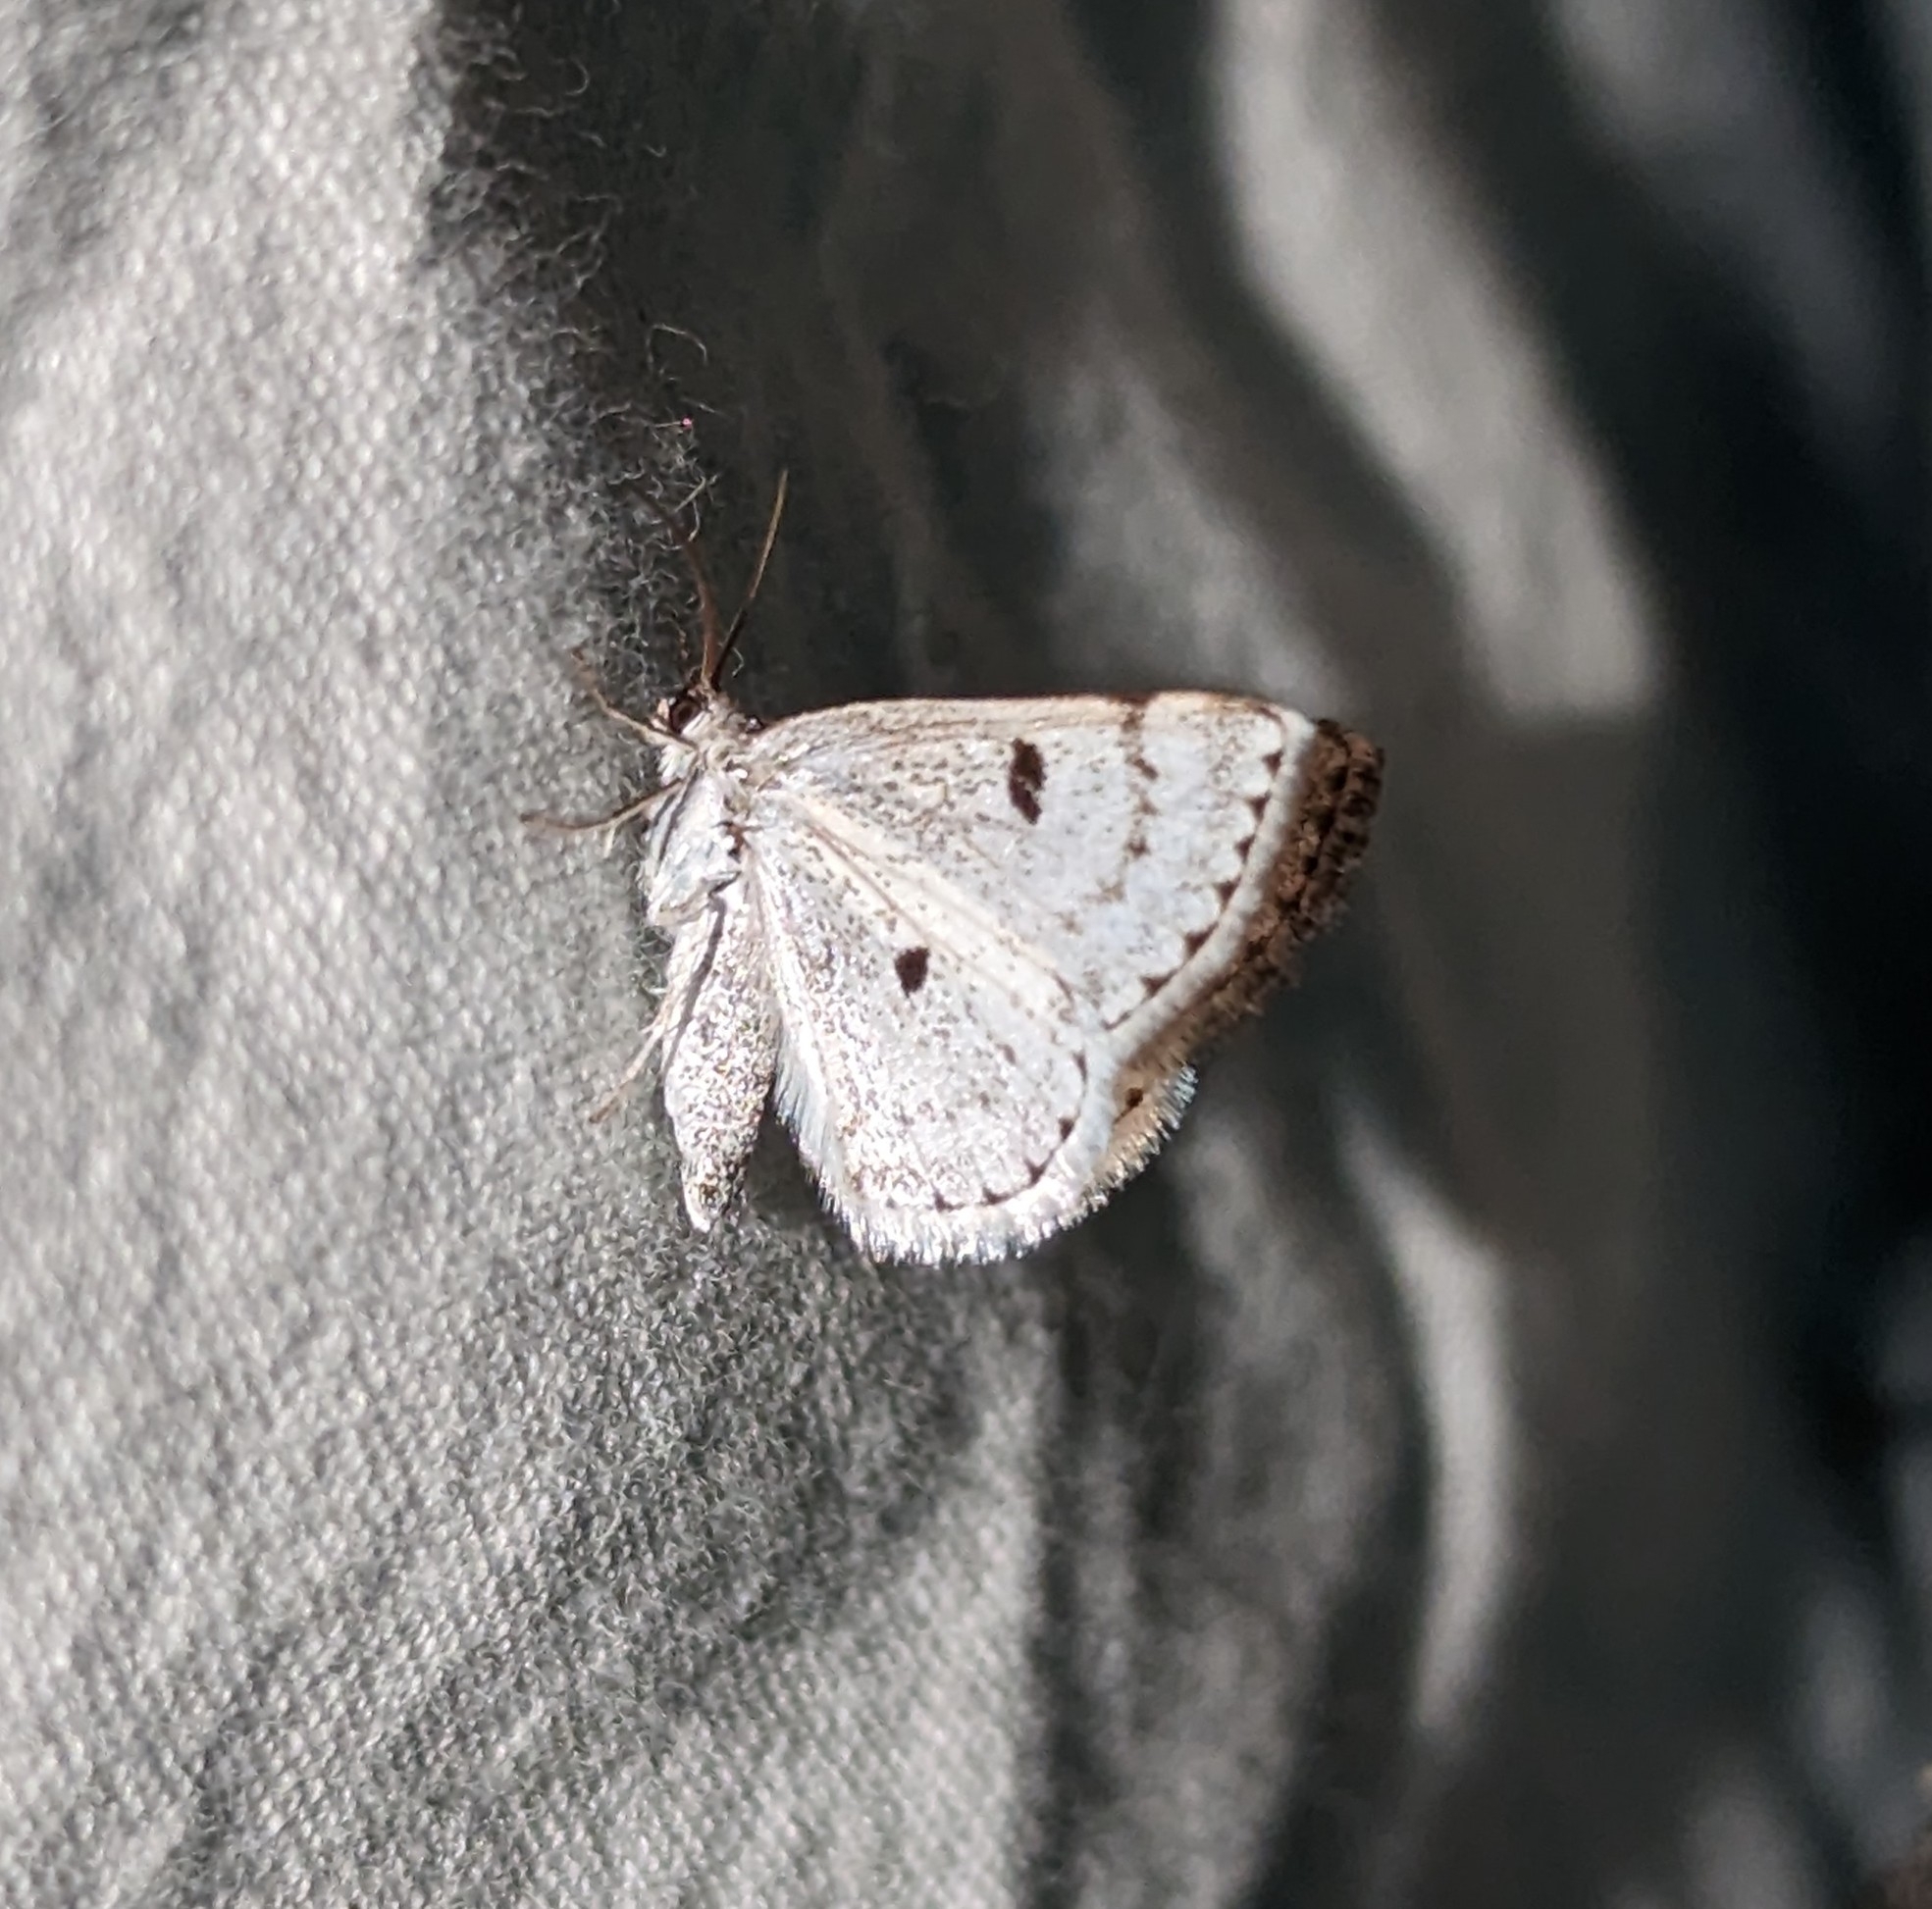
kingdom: Animalia
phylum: Arthropoda
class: Insecta
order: Lepidoptera
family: Geometridae
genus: Lomographa
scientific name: Lomographa semiclarata
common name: Bluish spring moth
